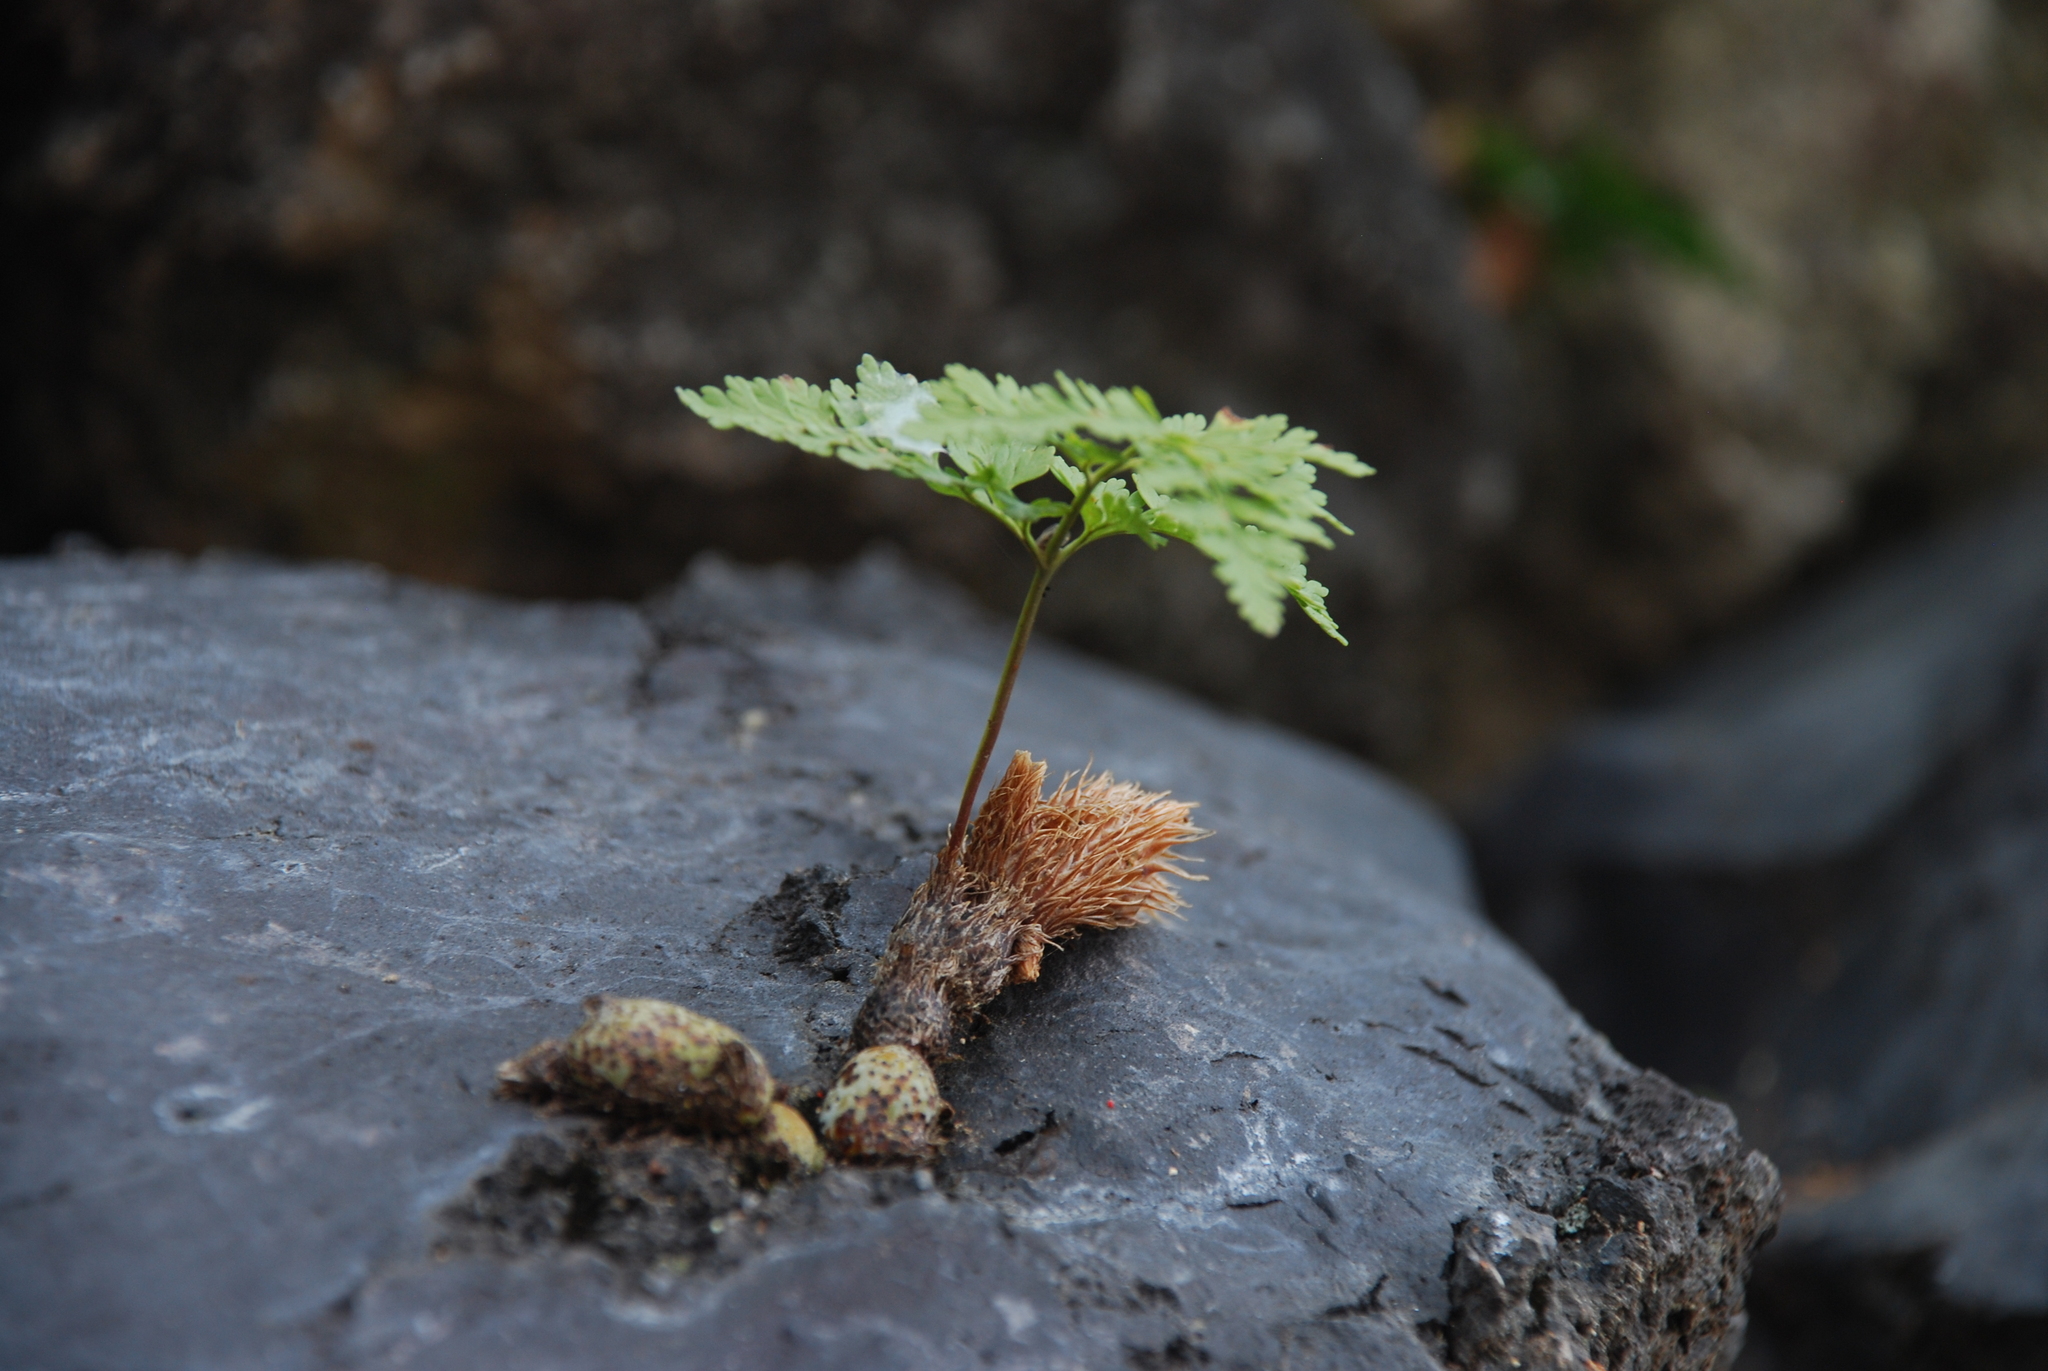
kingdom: Plantae
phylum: Tracheophyta
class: Polypodiopsida
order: Polypodiales
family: Davalliaceae
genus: Davallia
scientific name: Davallia canariensis
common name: Hare's-foot fern
